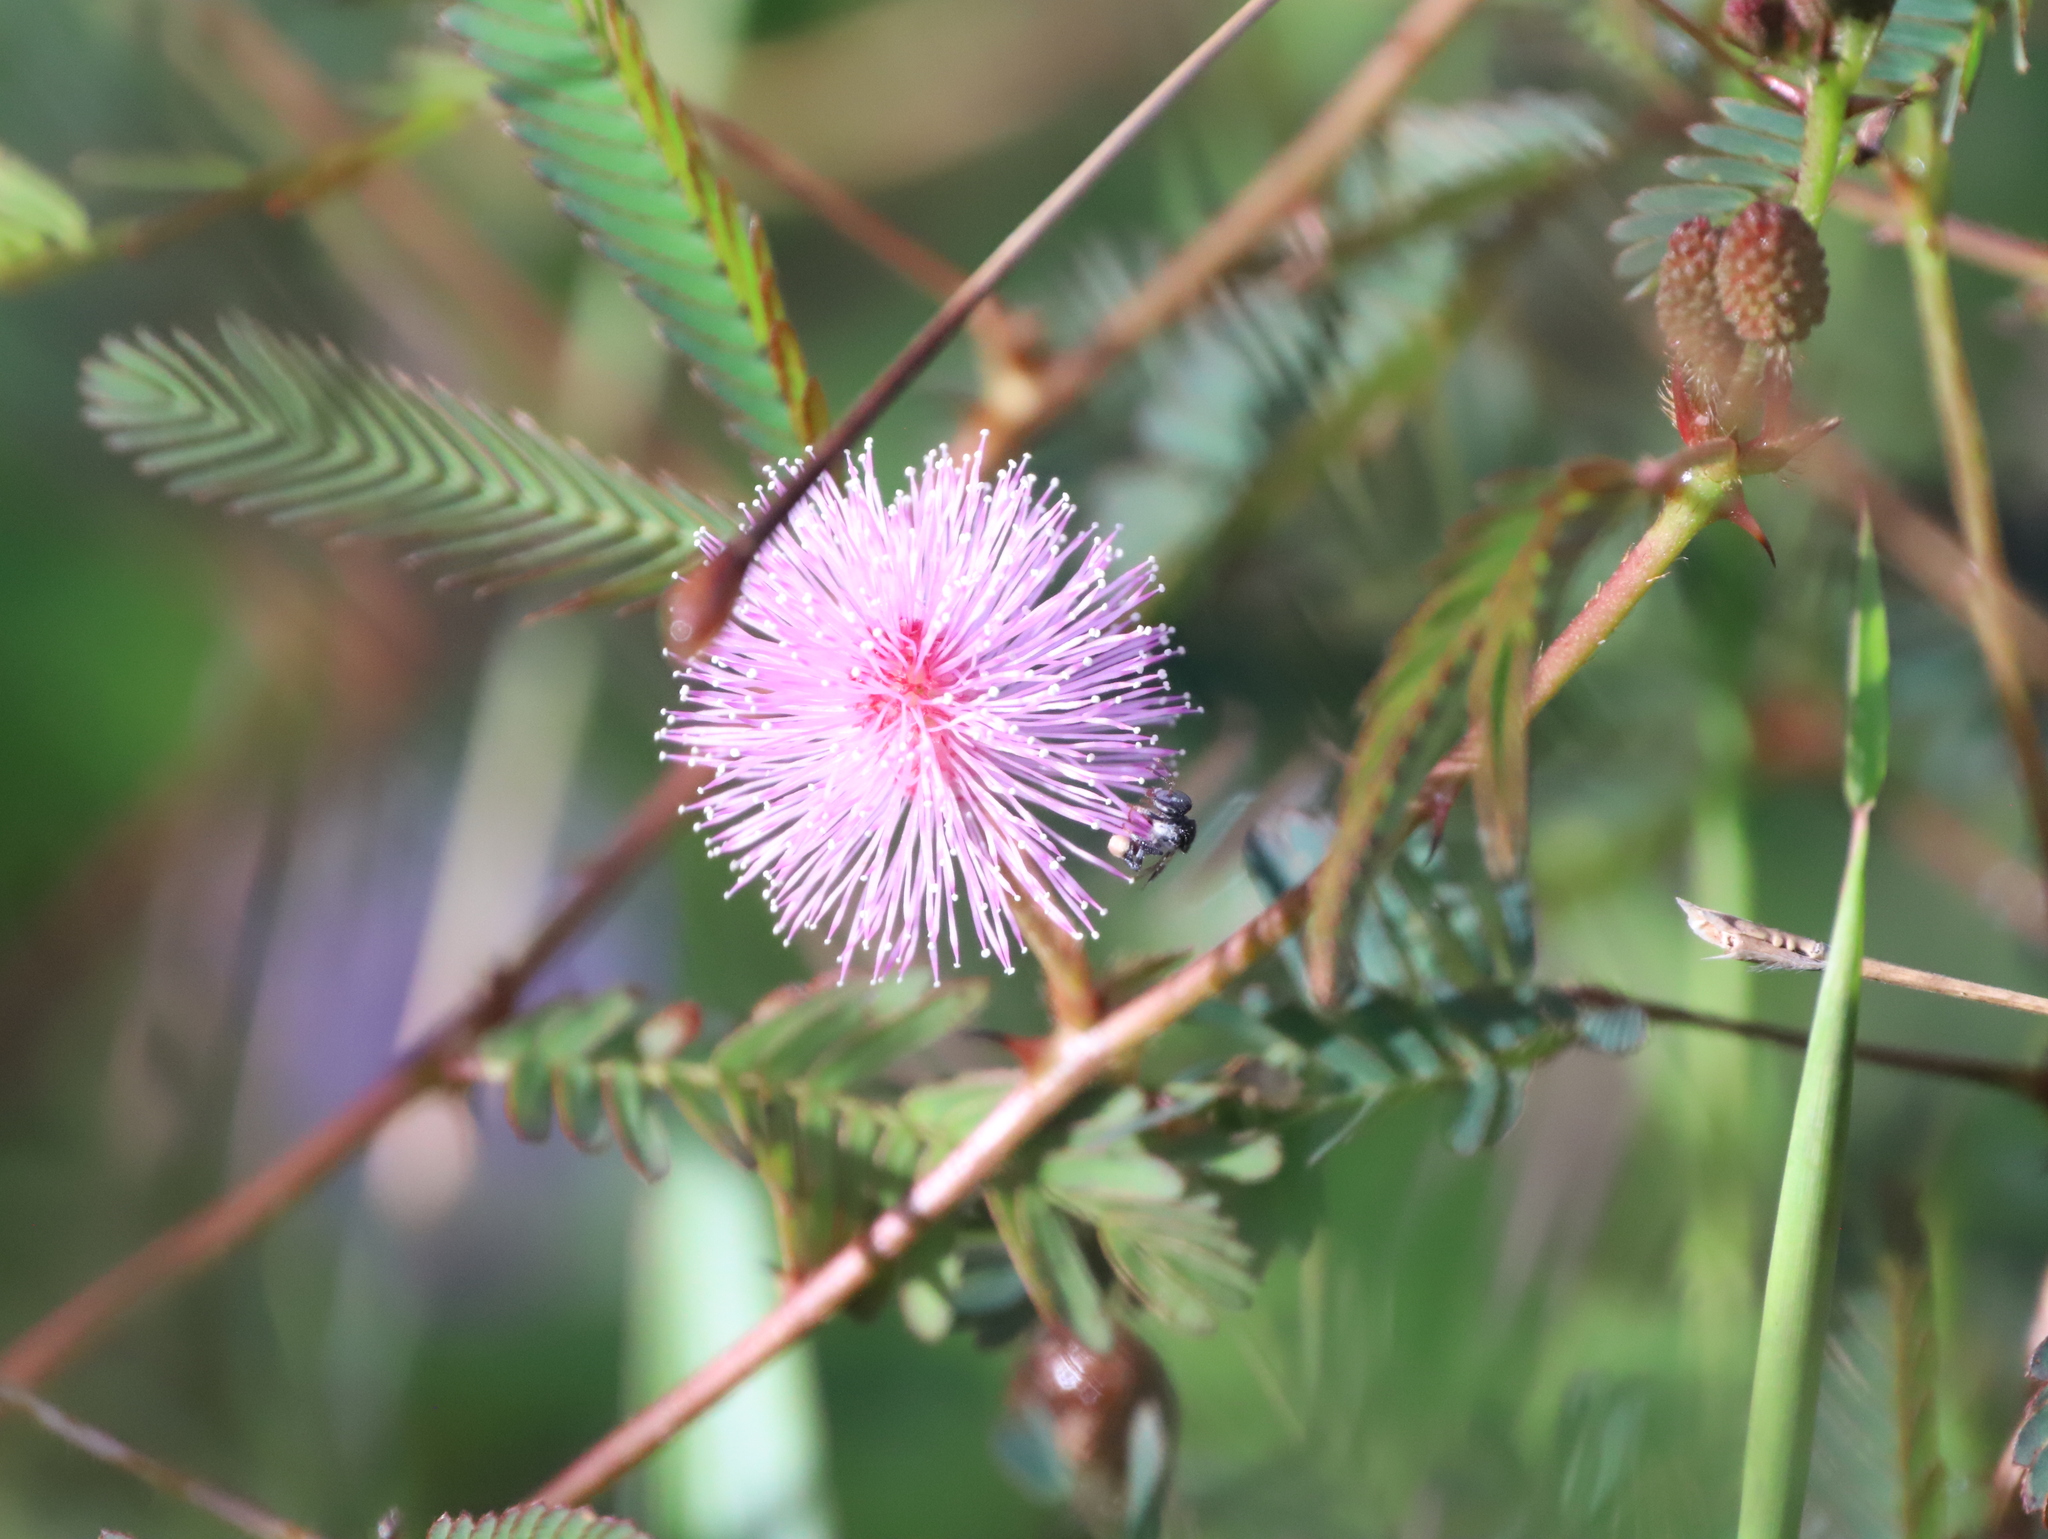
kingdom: Plantae
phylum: Tracheophyta
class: Magnoliopsida
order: Fabales
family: Fabaceae
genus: Mimosa
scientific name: Mimosa pudica
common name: Sensitive plant
